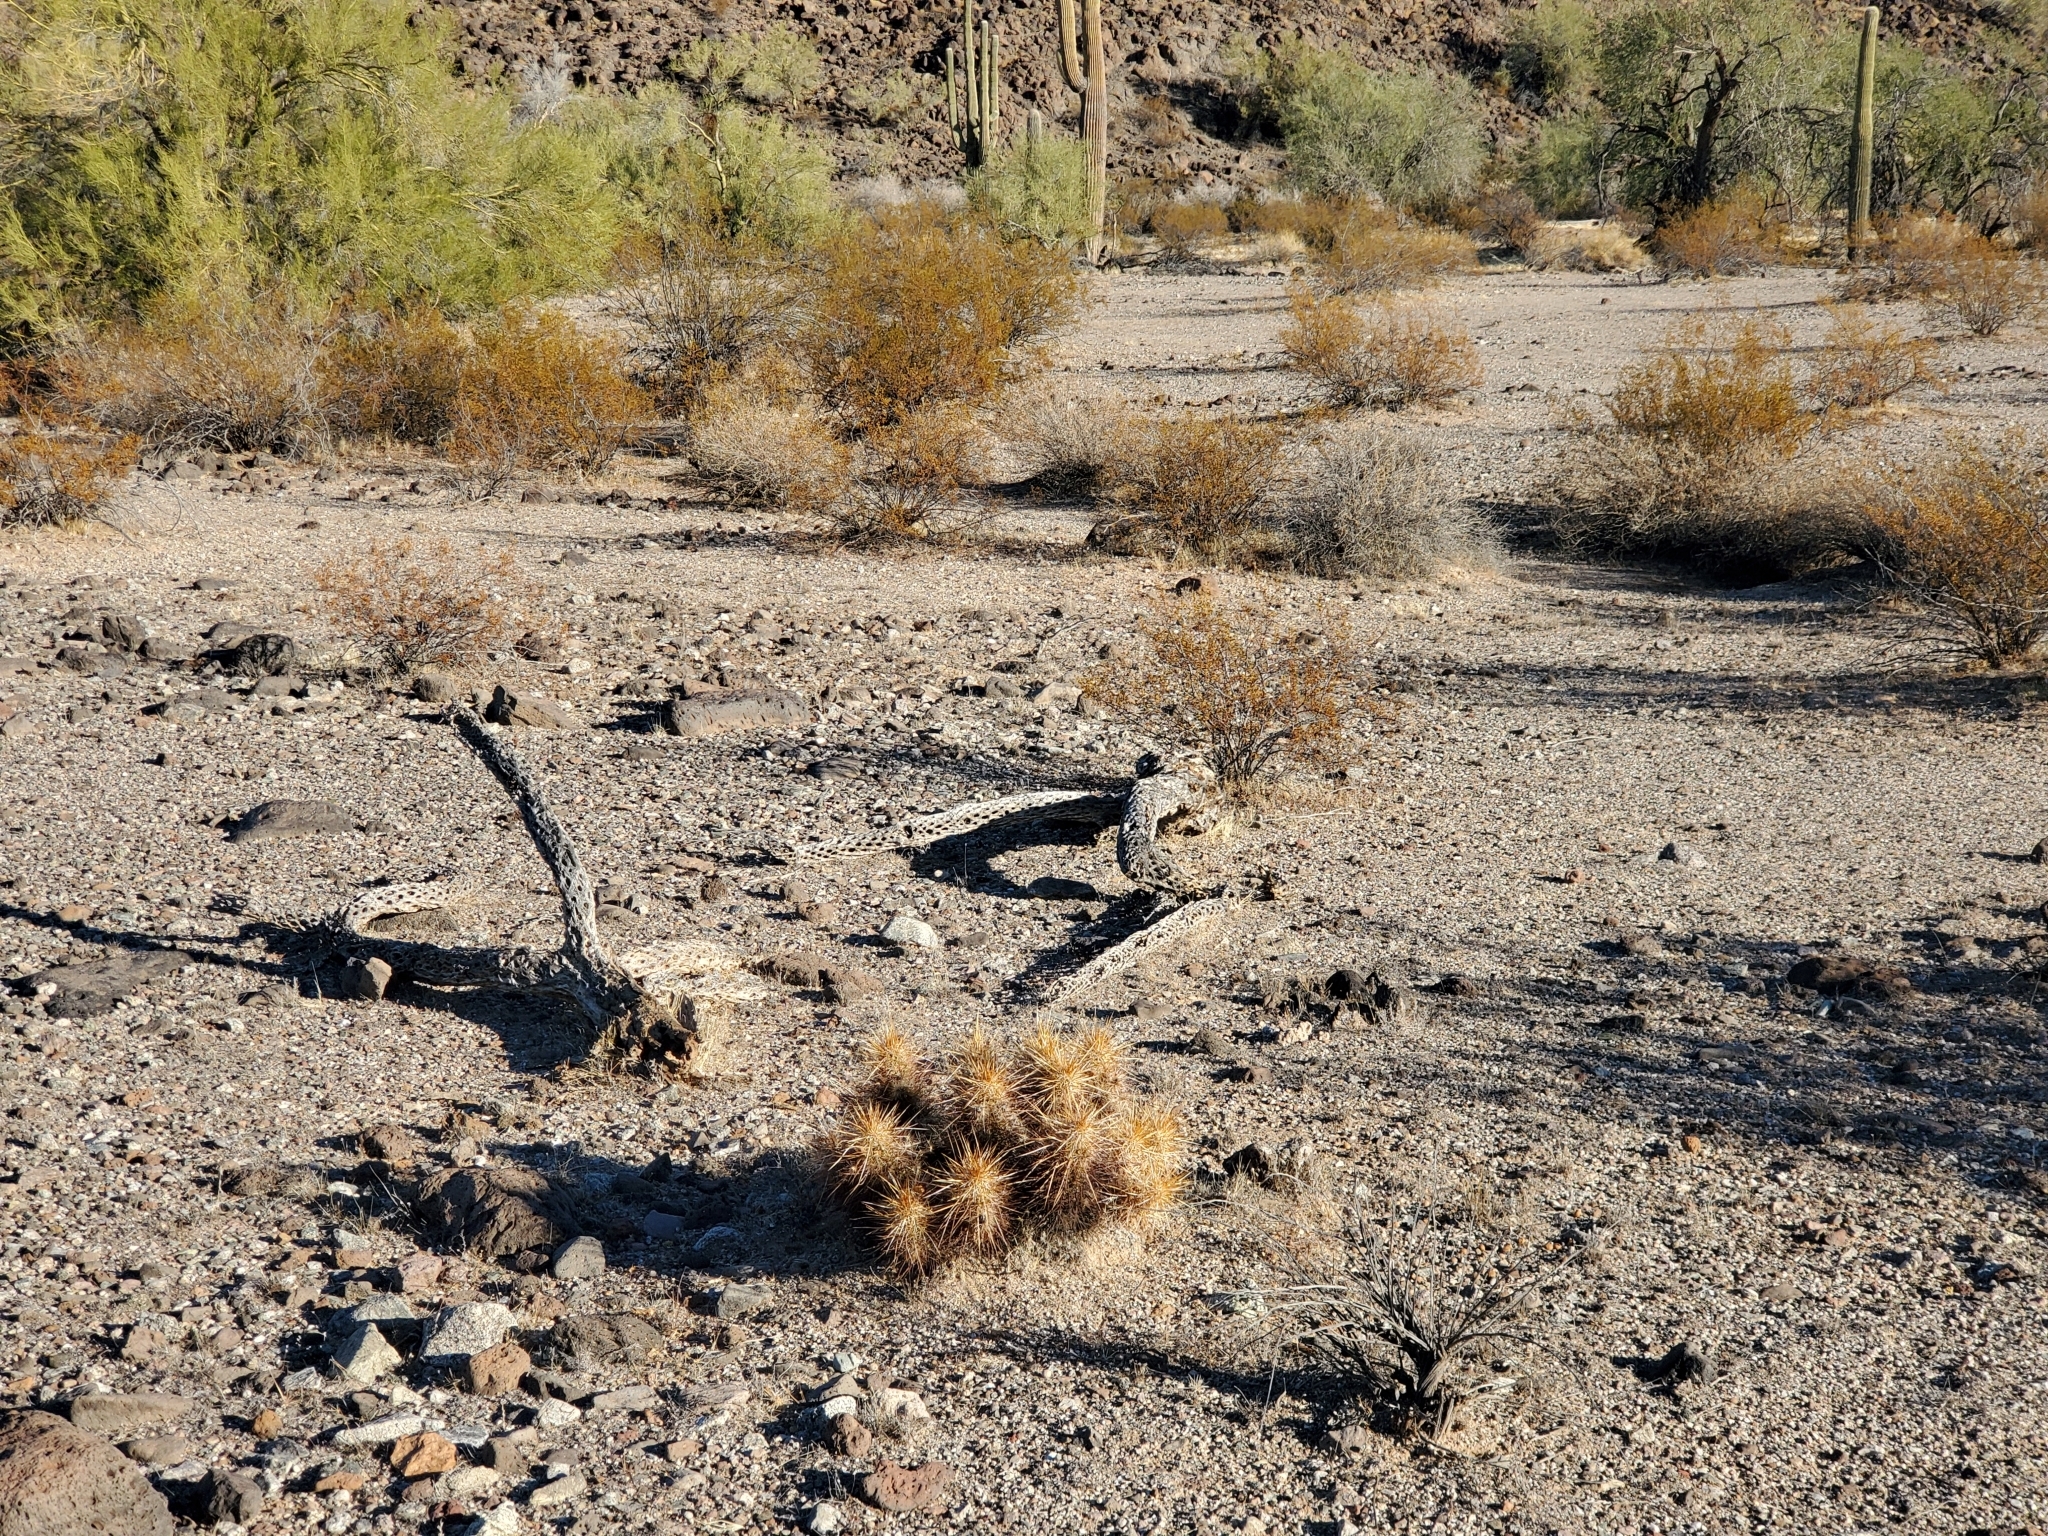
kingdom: Plantae
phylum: Tracheophyta
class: Magnoliopsida
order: Caryophyllales
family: Cactaceae
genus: Echinocereus
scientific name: Echinocereus engelmannii
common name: Engelmann's hedgehog cactus
